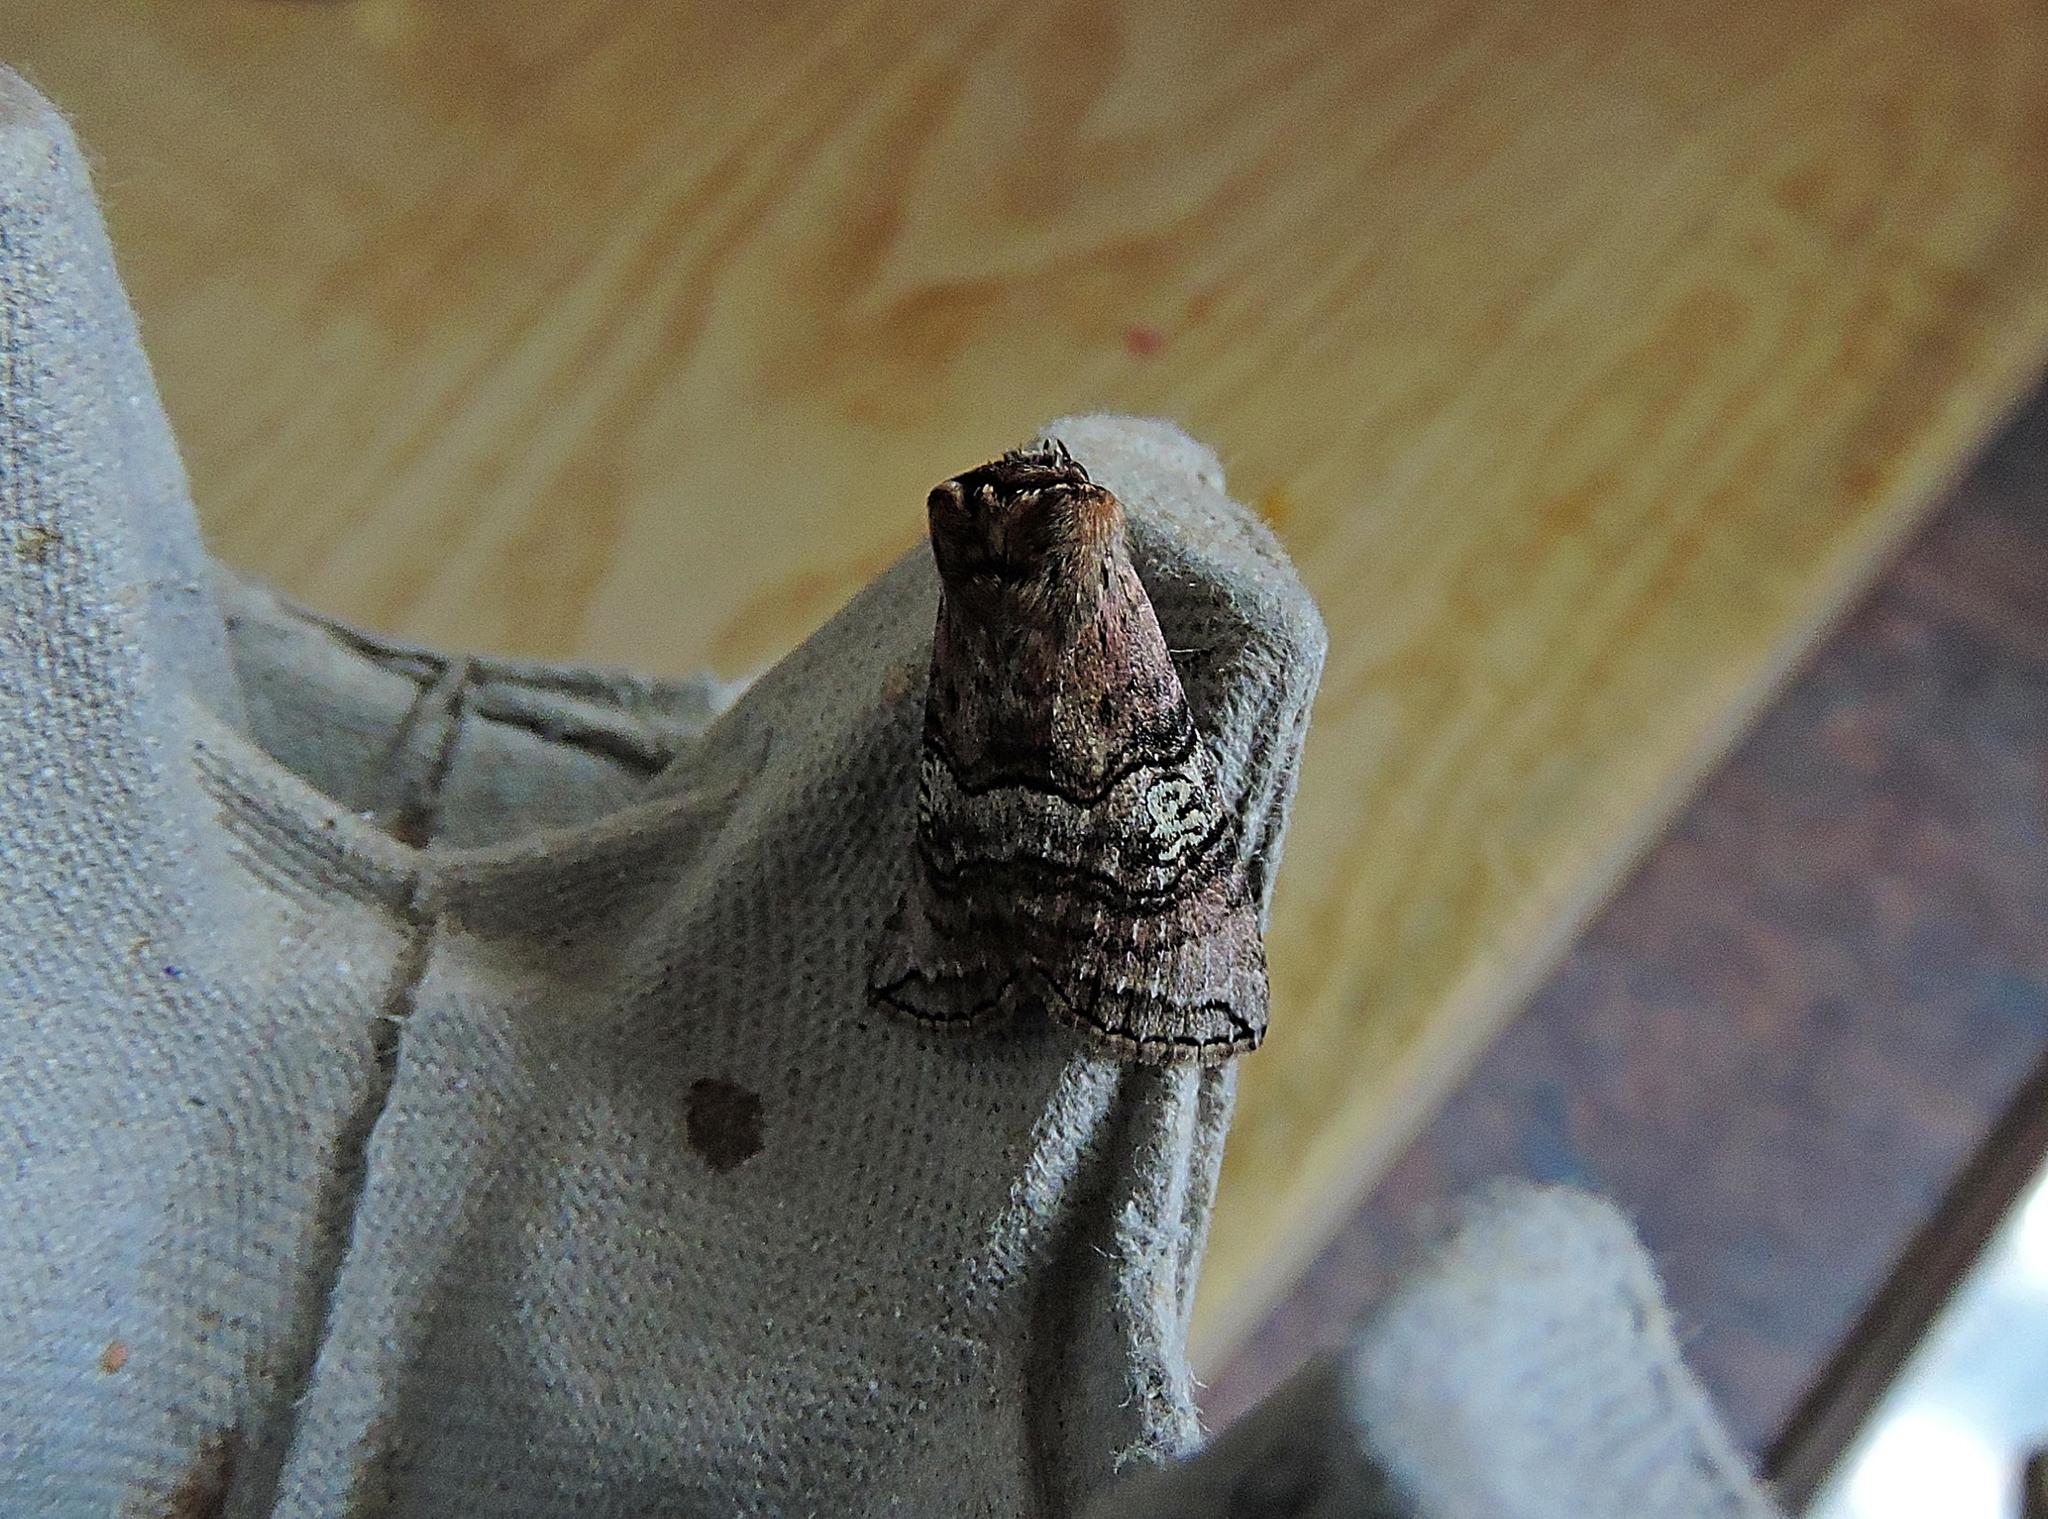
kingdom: Animalia
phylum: Arthropoda
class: Insecta
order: Lepidoptera
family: Drepanidae
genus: Tethea
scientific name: Tethea ocularis
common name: Figure of eighty
